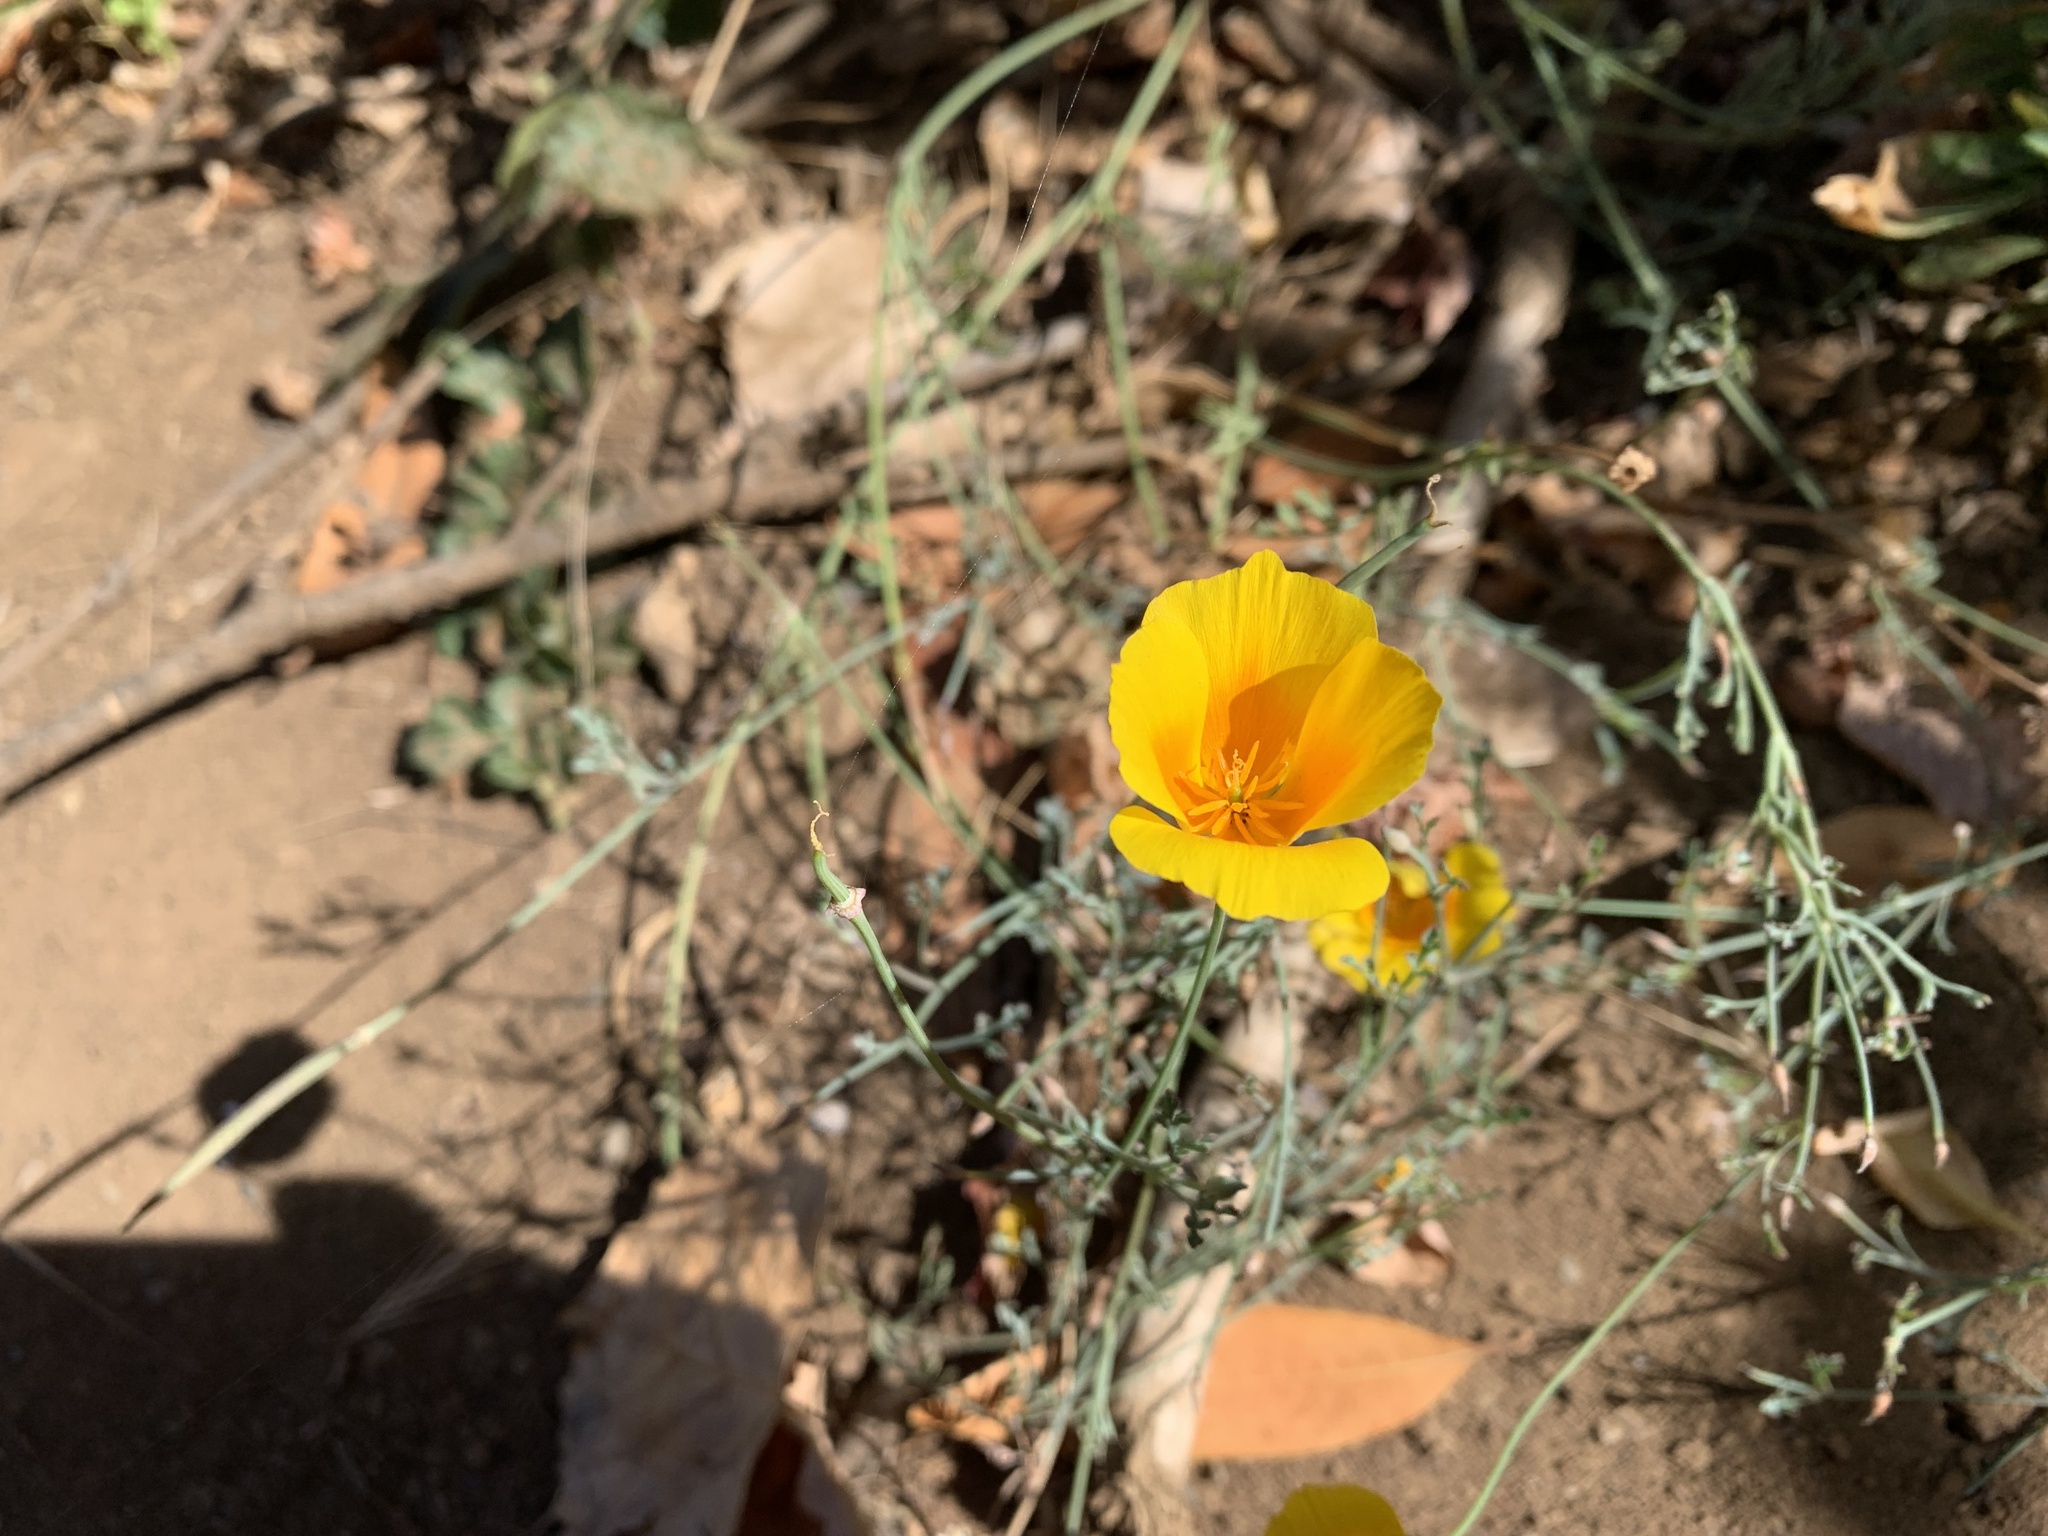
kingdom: Plantae
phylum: Tracheophyta
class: Magnoliopsida
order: Ranunculales
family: Papaveraceae
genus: Eschscholzia
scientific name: Eschscholzia californica
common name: California poppy
